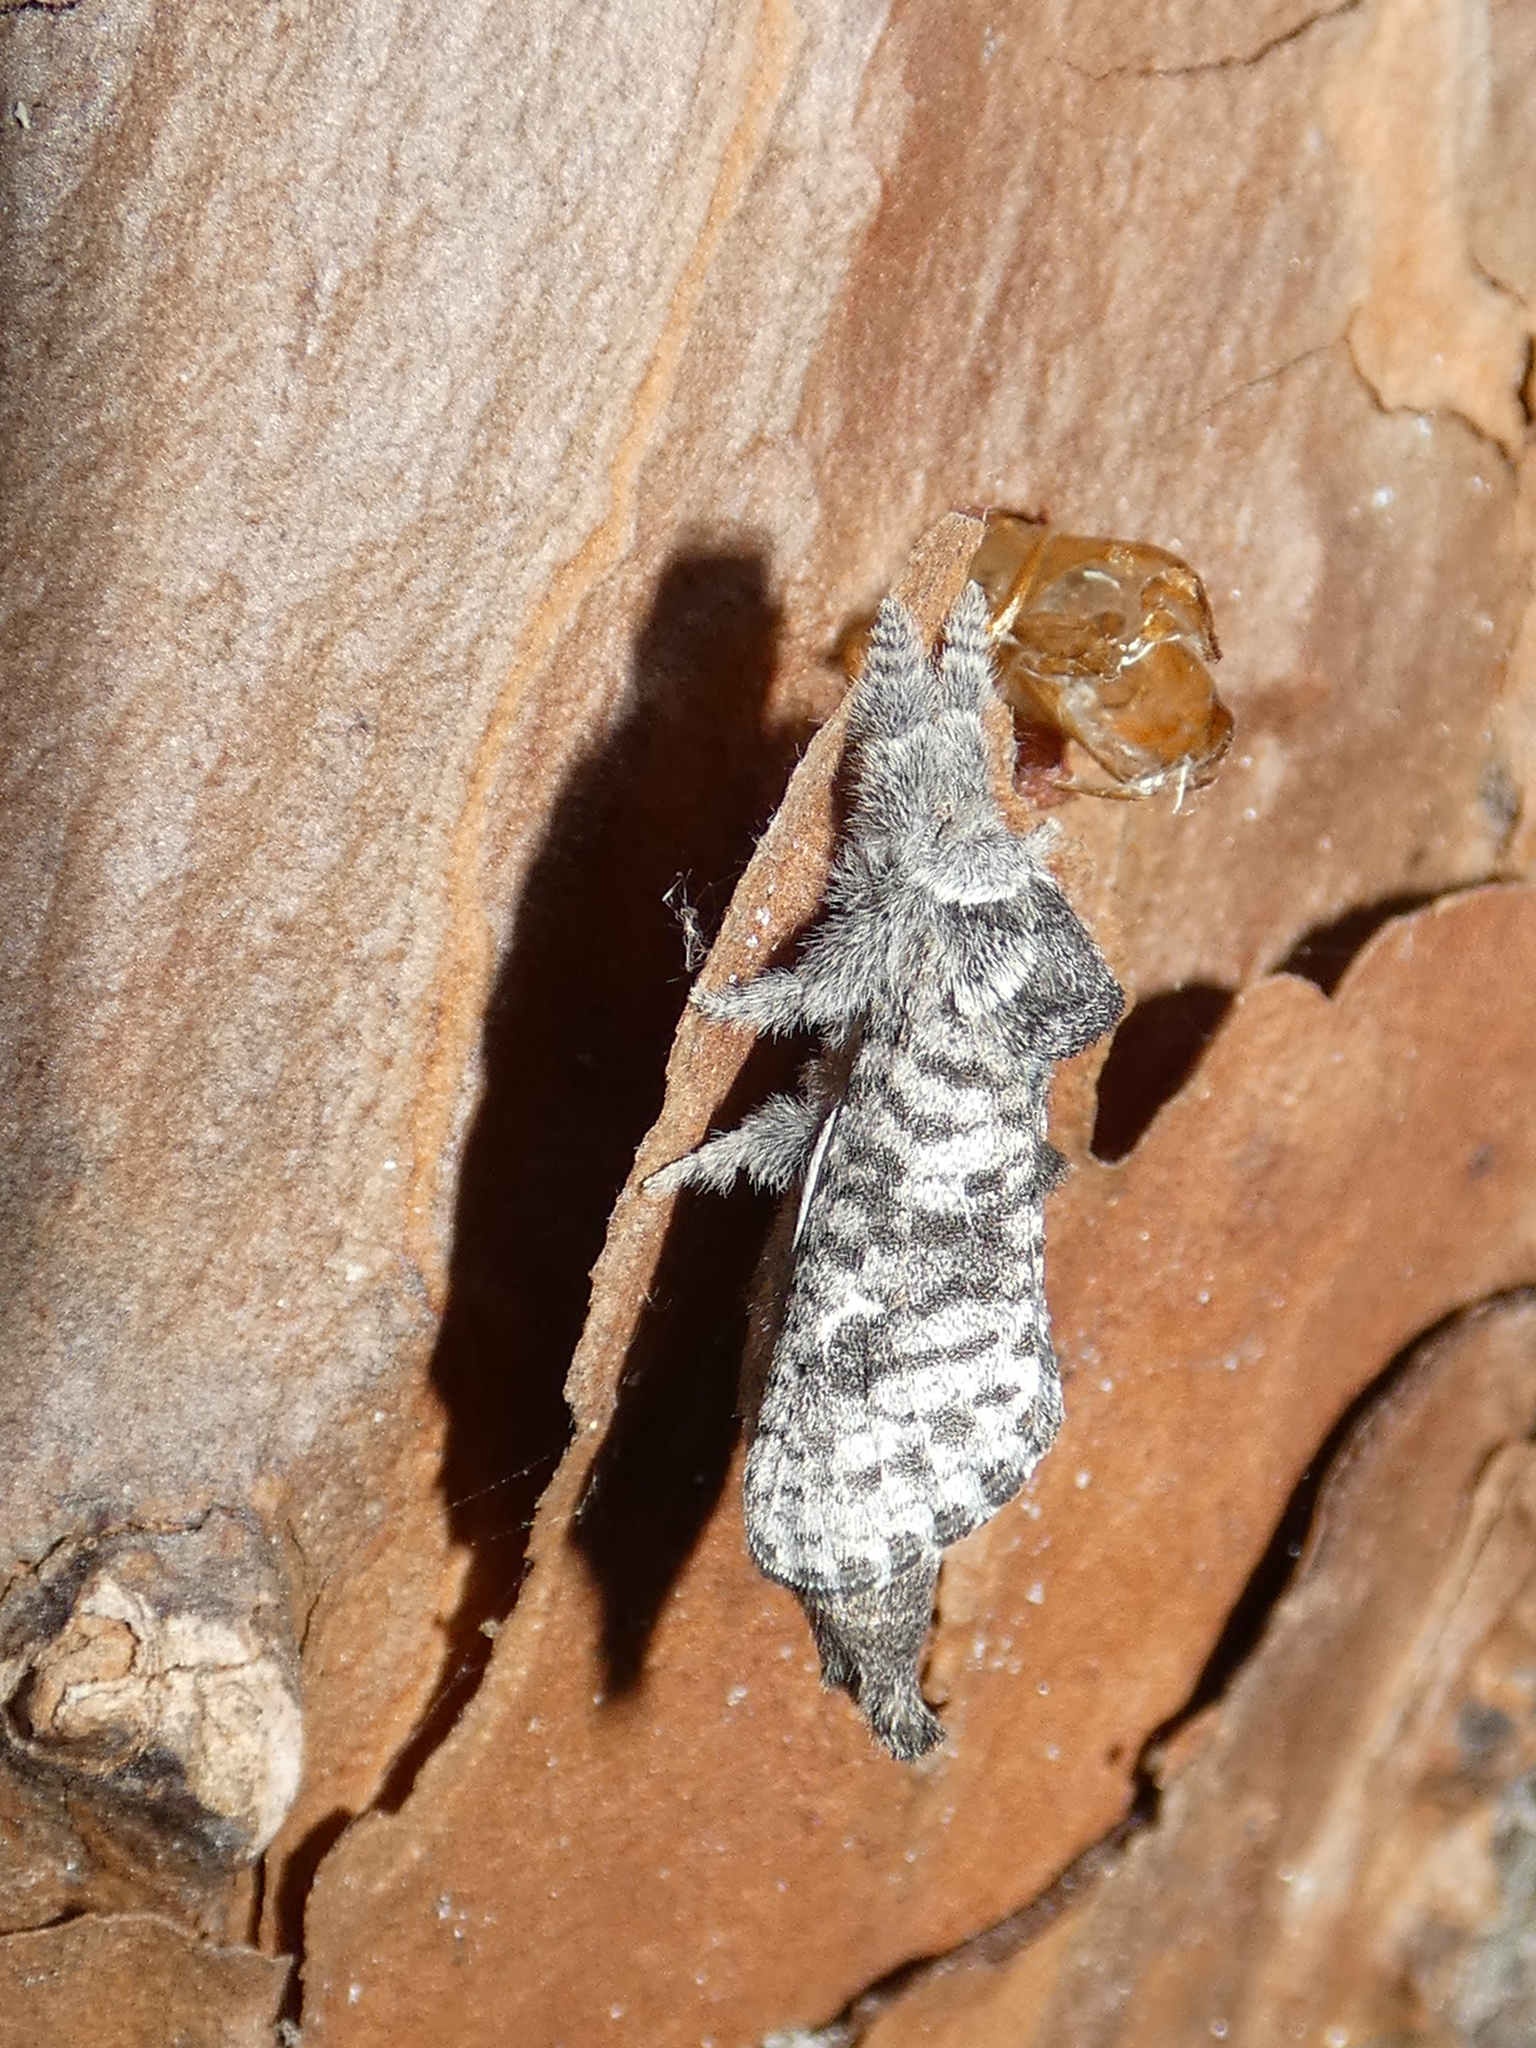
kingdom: Animalia
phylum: Arthropoda
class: Insecta
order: Lepidoptera
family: Cossidae
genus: Givira
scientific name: Givira francesca
